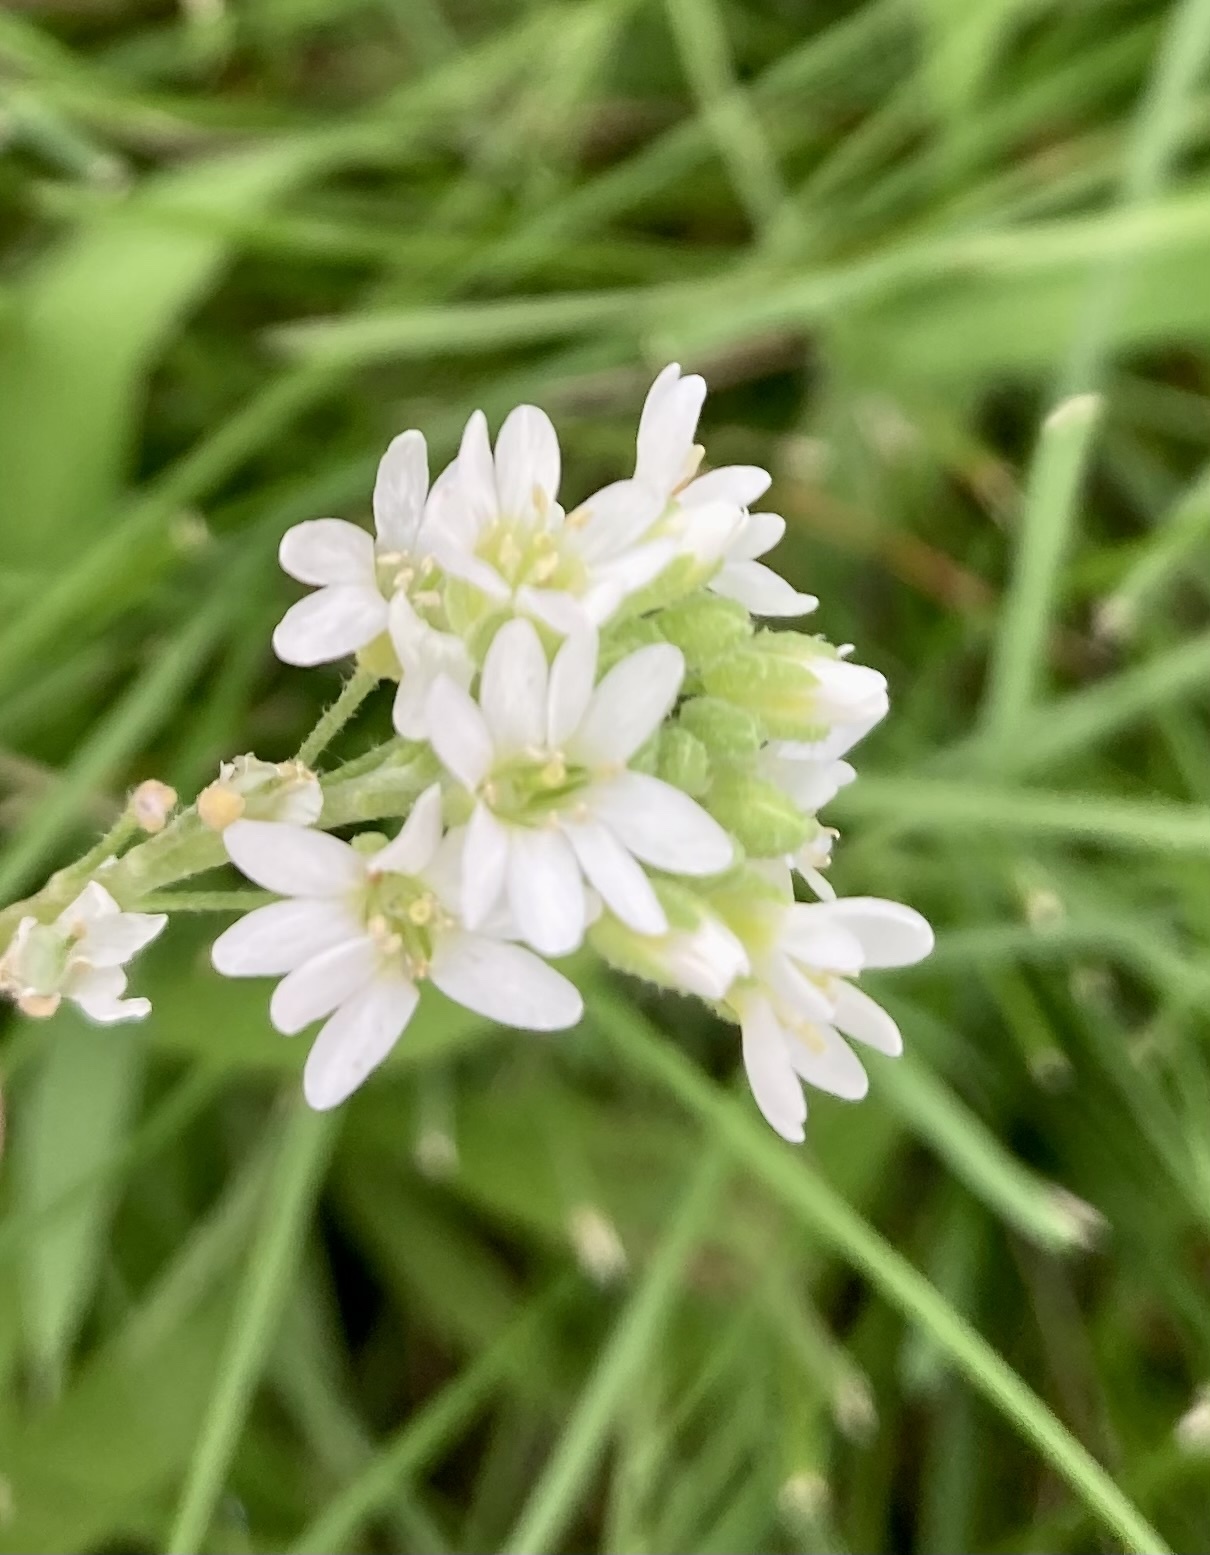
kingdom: Plantae
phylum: Tracheophyta
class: Magnoliopsida
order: Brassicales
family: Brassicaceae
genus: Berteroa
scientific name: Berteroa incana
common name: Hoary alison
